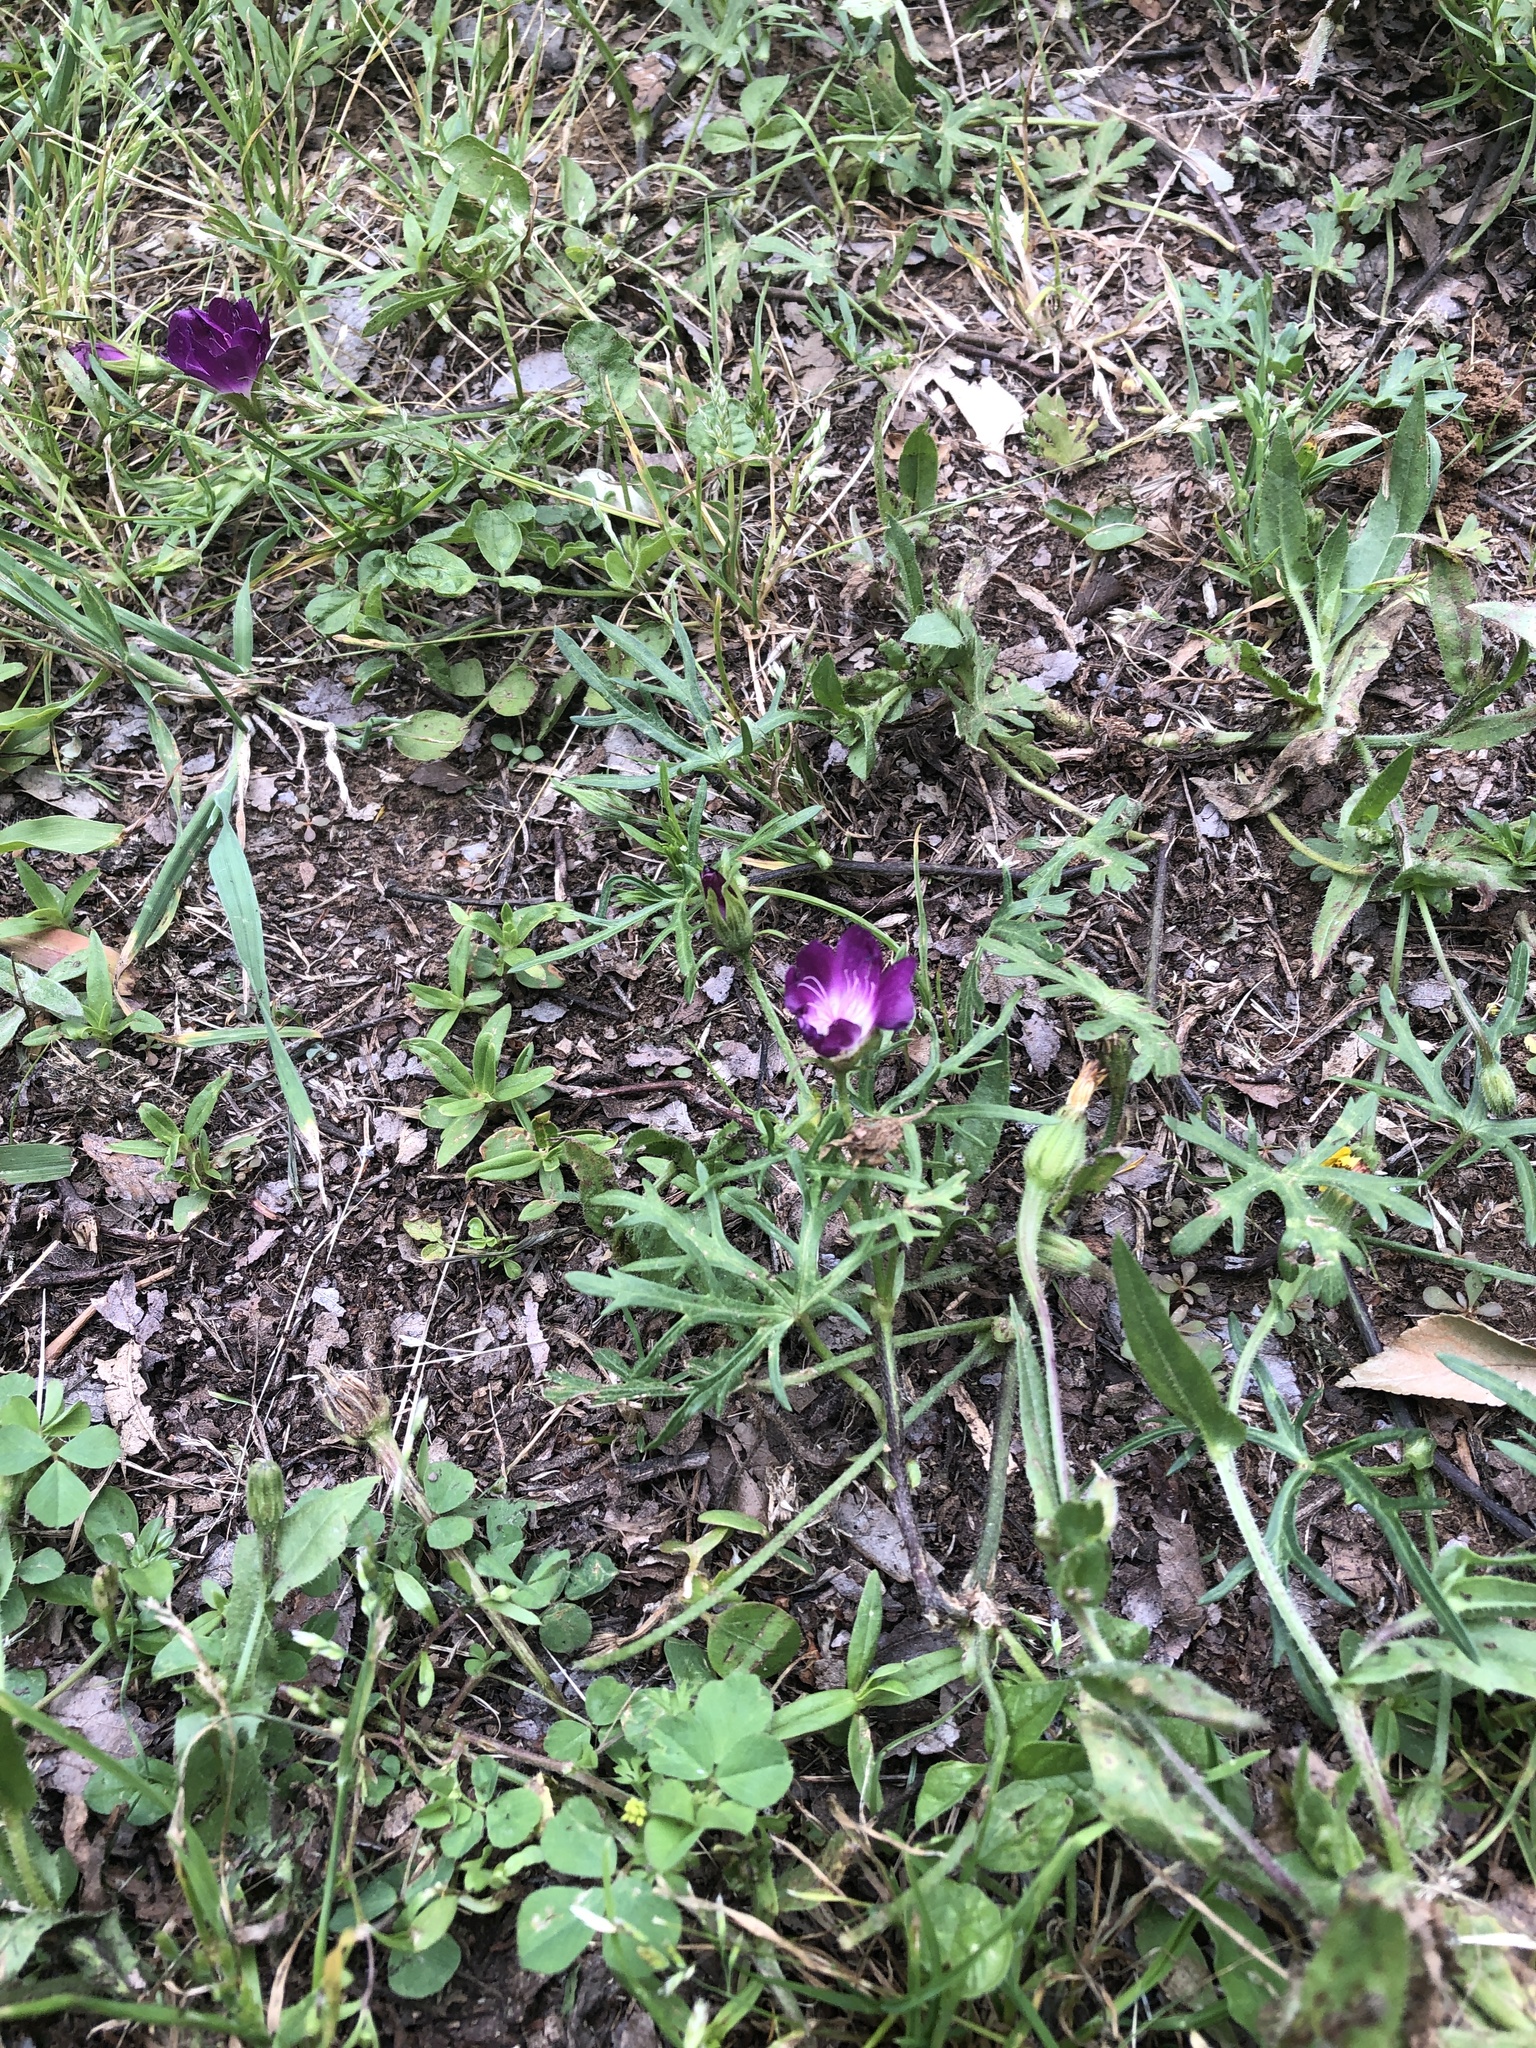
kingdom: Plantae
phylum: Tracheophyta
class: Magnoliopsida
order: Malvales
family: Malvaceae
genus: Callirhoe
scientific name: Callirhoe involucrata
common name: Purple poppy-mallow
